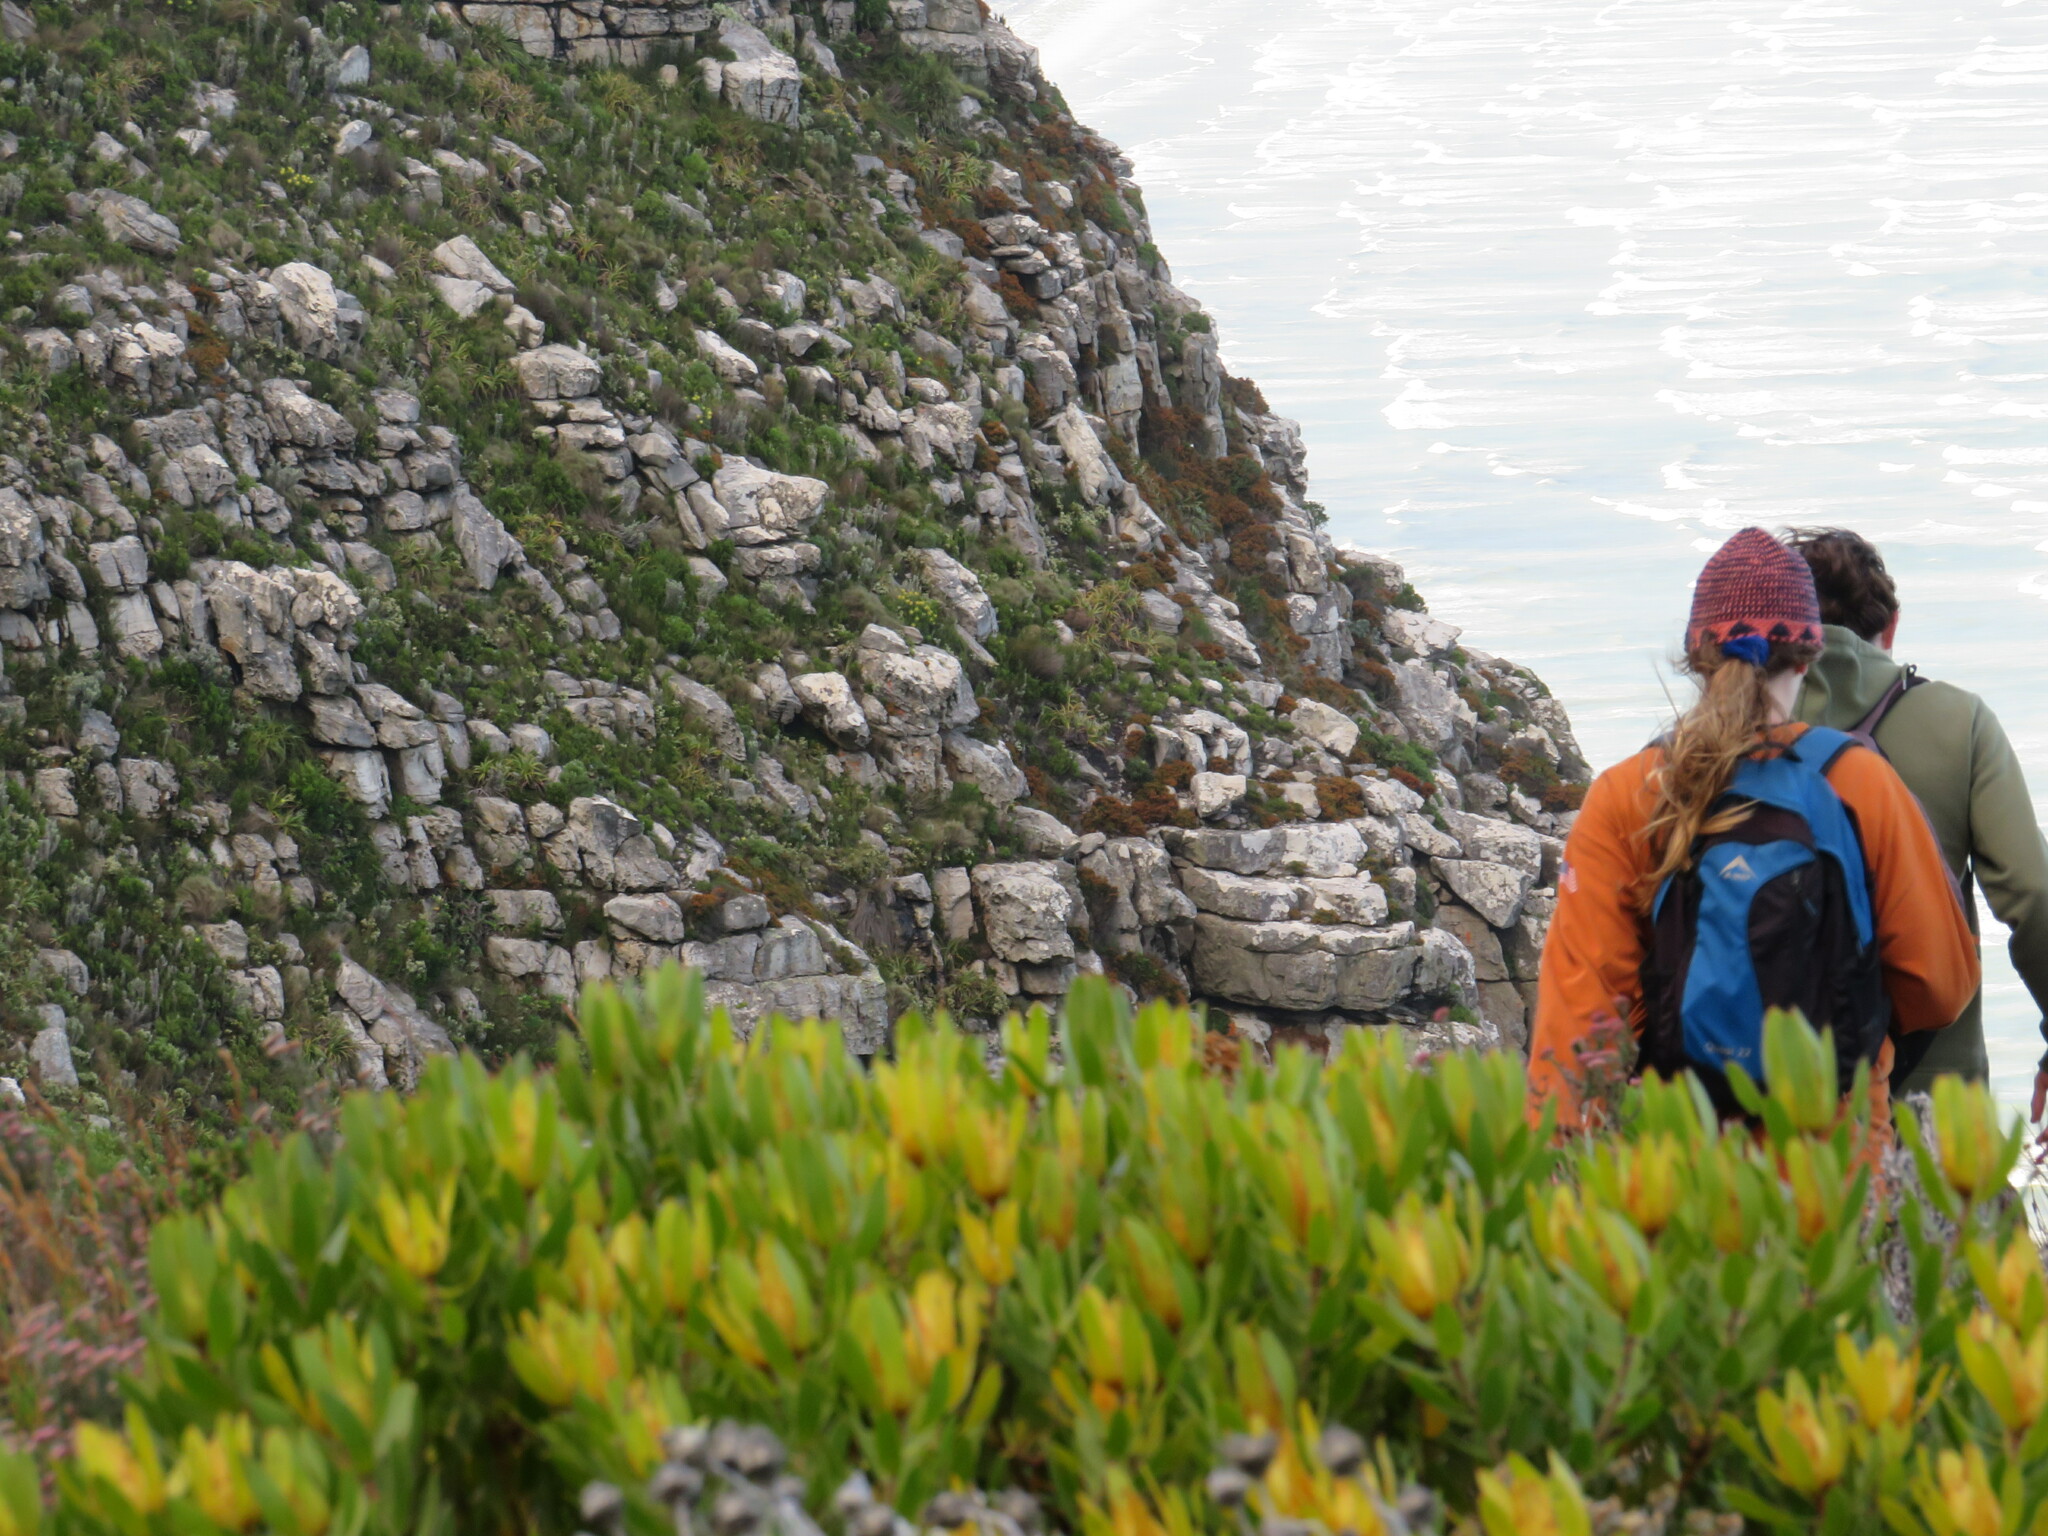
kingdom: Plantae
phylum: Tracheophyta
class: Magnoliopsida
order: Proteales
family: Proteaceae
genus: Leucadendron
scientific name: Leucadendron laureolum
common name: Golden sunshinebush
